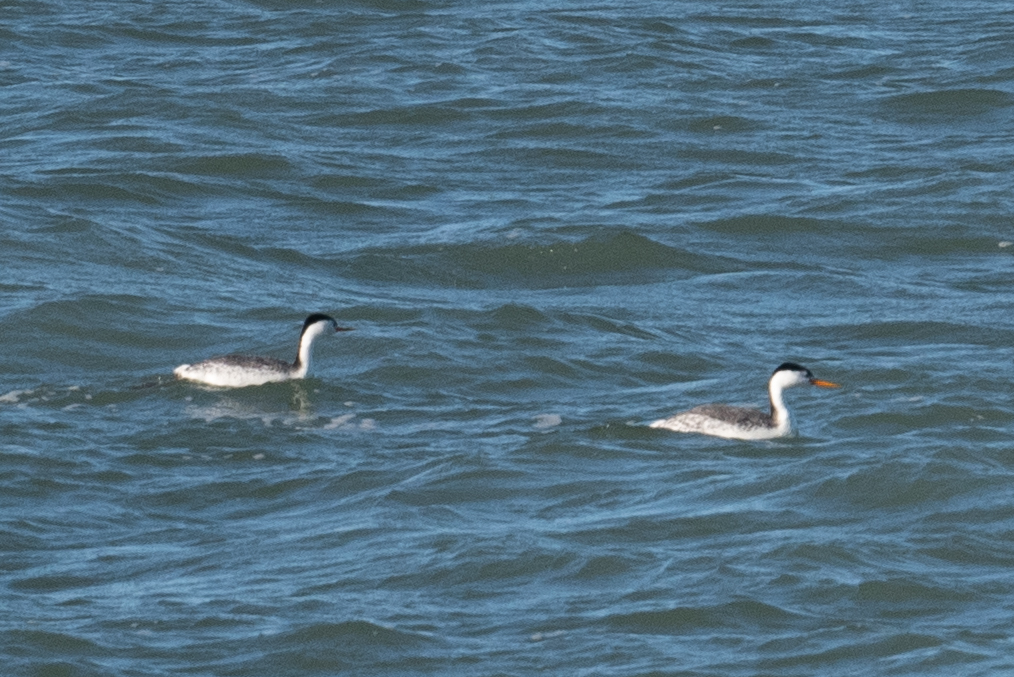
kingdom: Animalia
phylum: Chordata
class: Aves
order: Podicipediformes
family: Podicipedidae
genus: Aechmophorus
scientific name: Aechmophorus clarkii
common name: Clark's grebe
